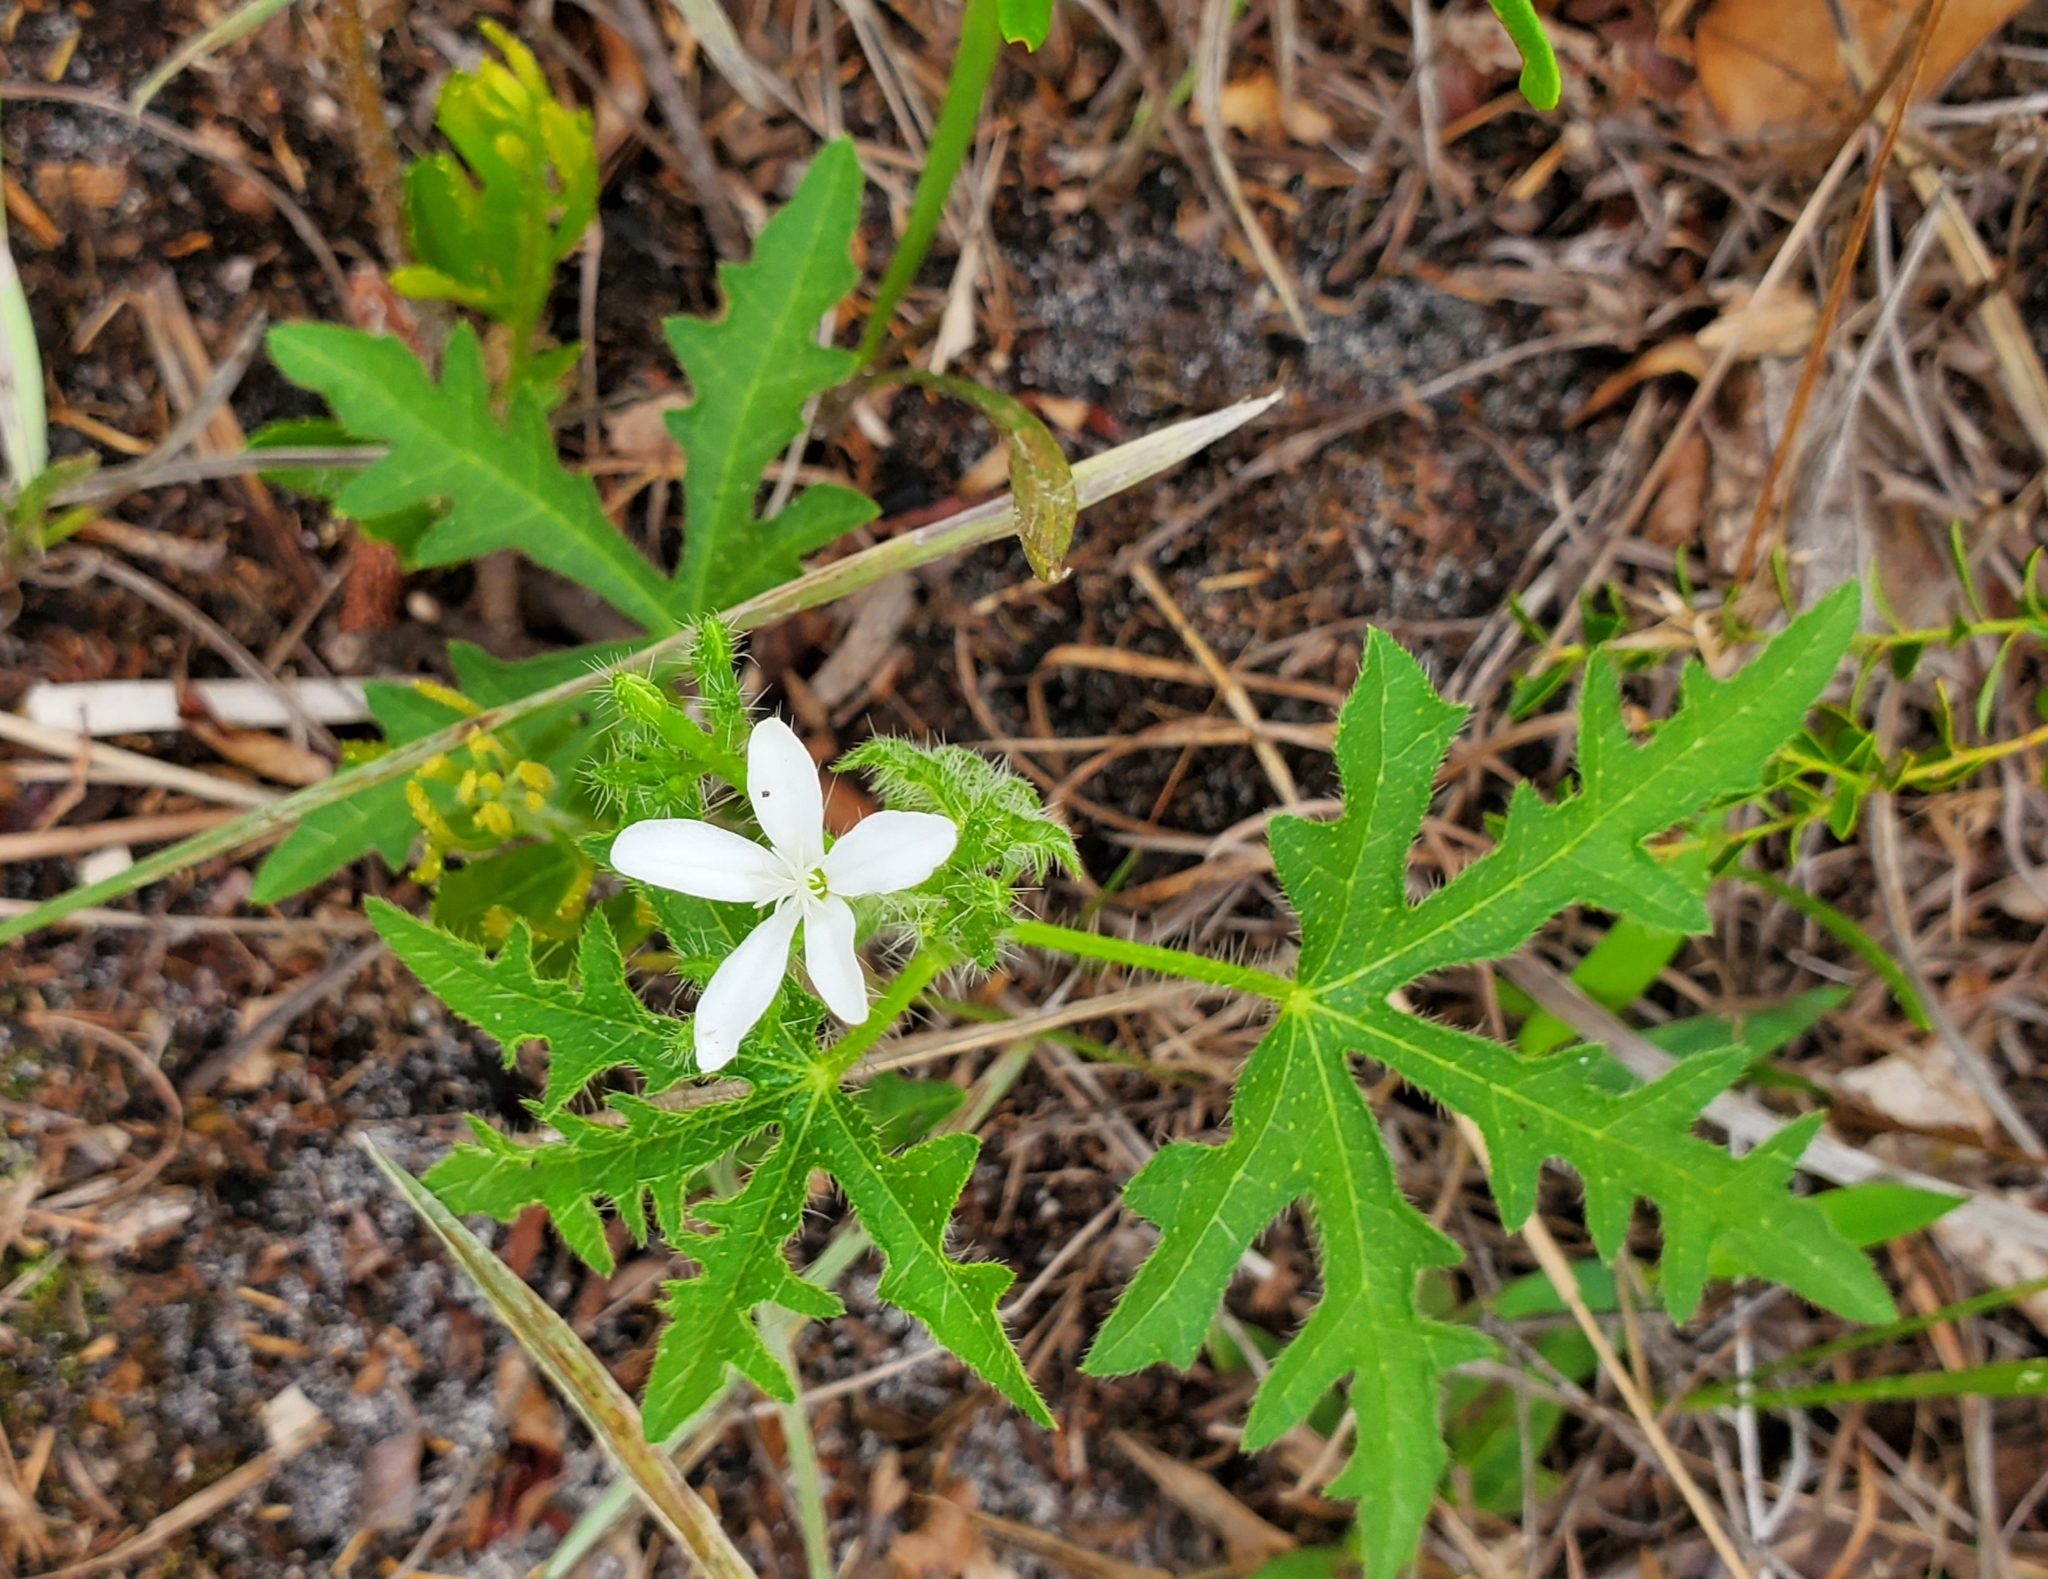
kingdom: Plantae
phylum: Tracheophyta
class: Magnoliopsida
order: Malpighiales
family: Euphorbiaceae
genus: Cnidoscolus
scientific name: Cnidoscolus stimulosus
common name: Bull-nettle
